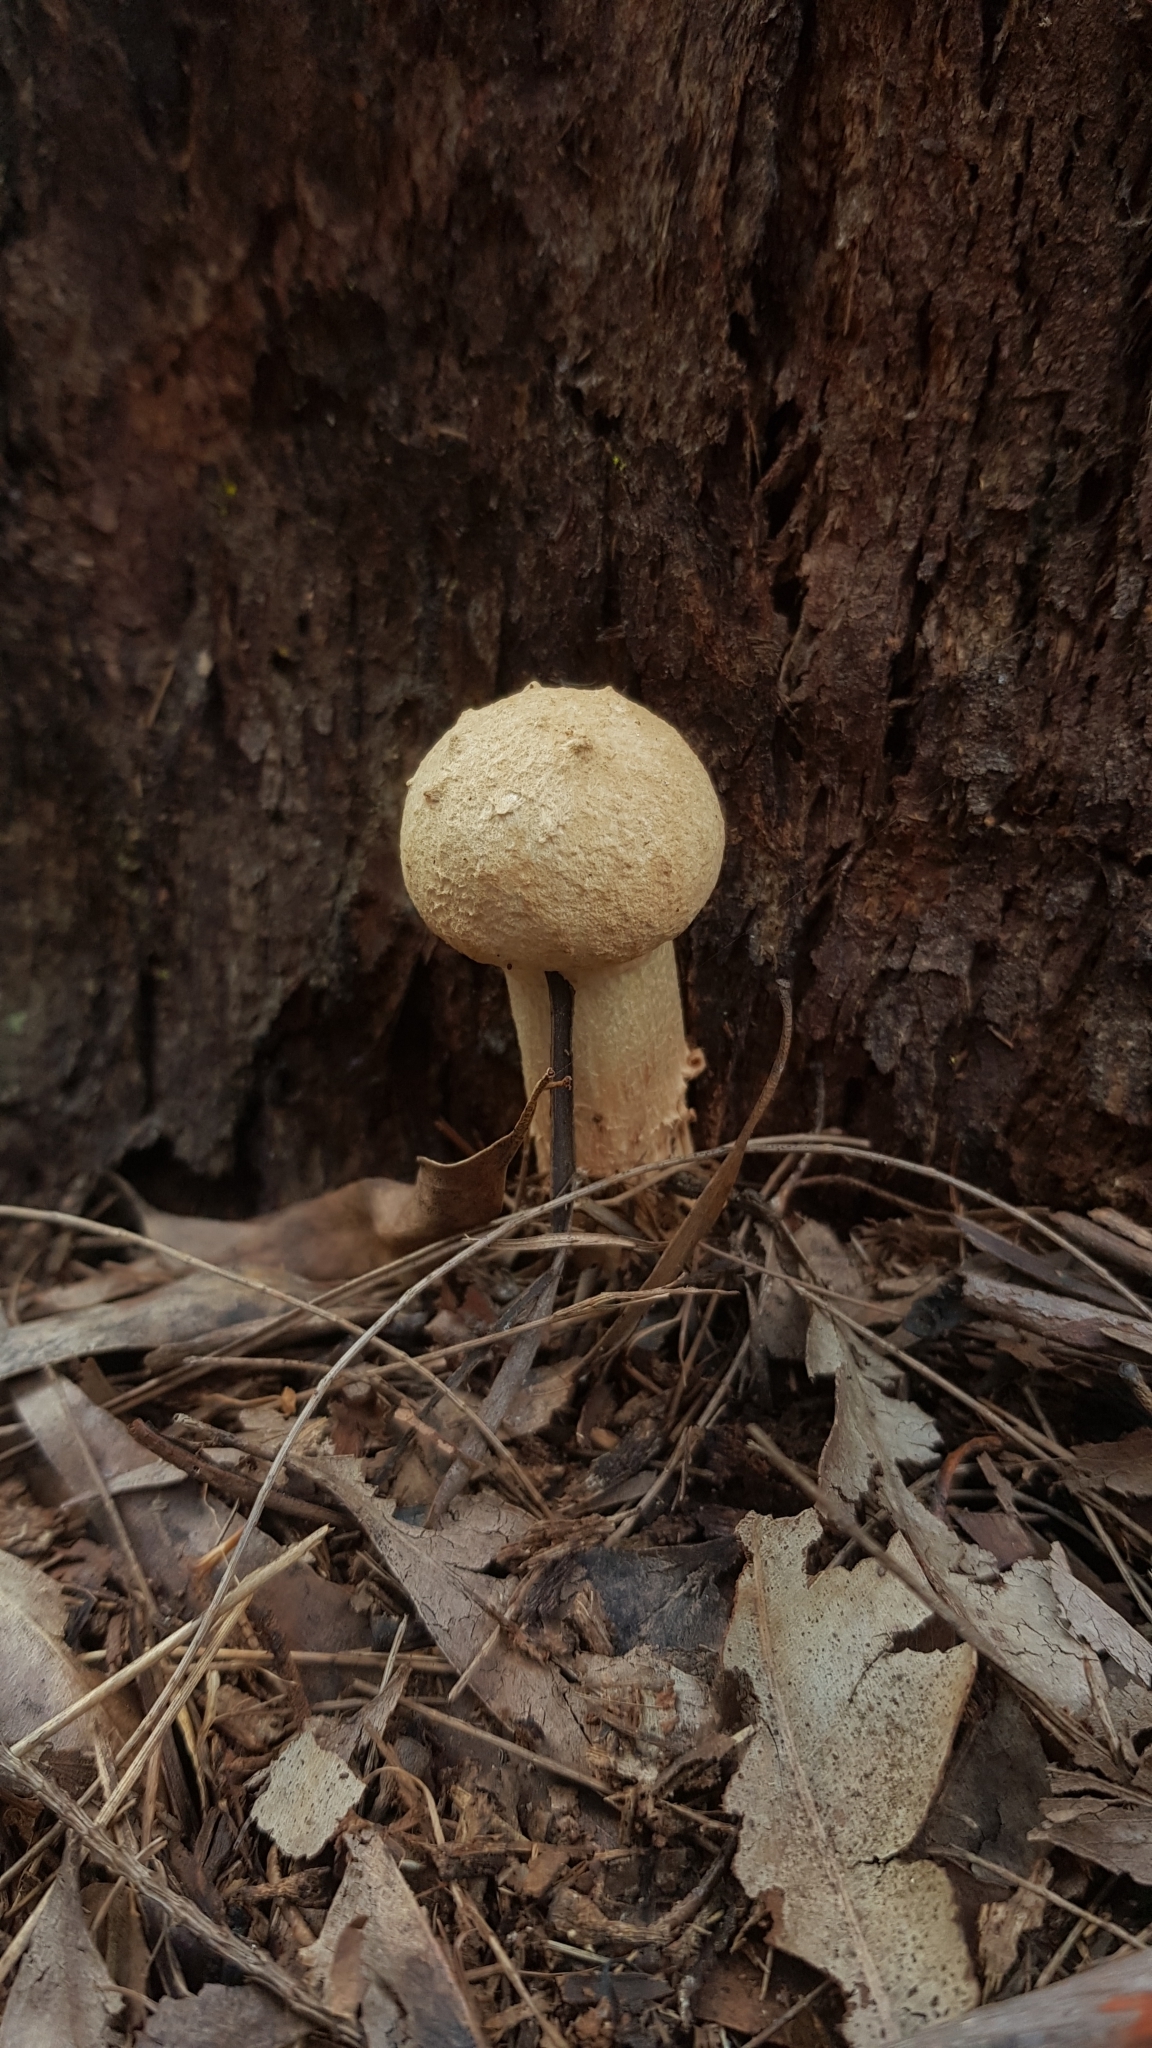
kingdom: Fungi
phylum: Basidiomycota
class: Agaricomycetes
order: Boletales
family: Boletaceae
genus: Boletellus
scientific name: Boletellus dissiliens
